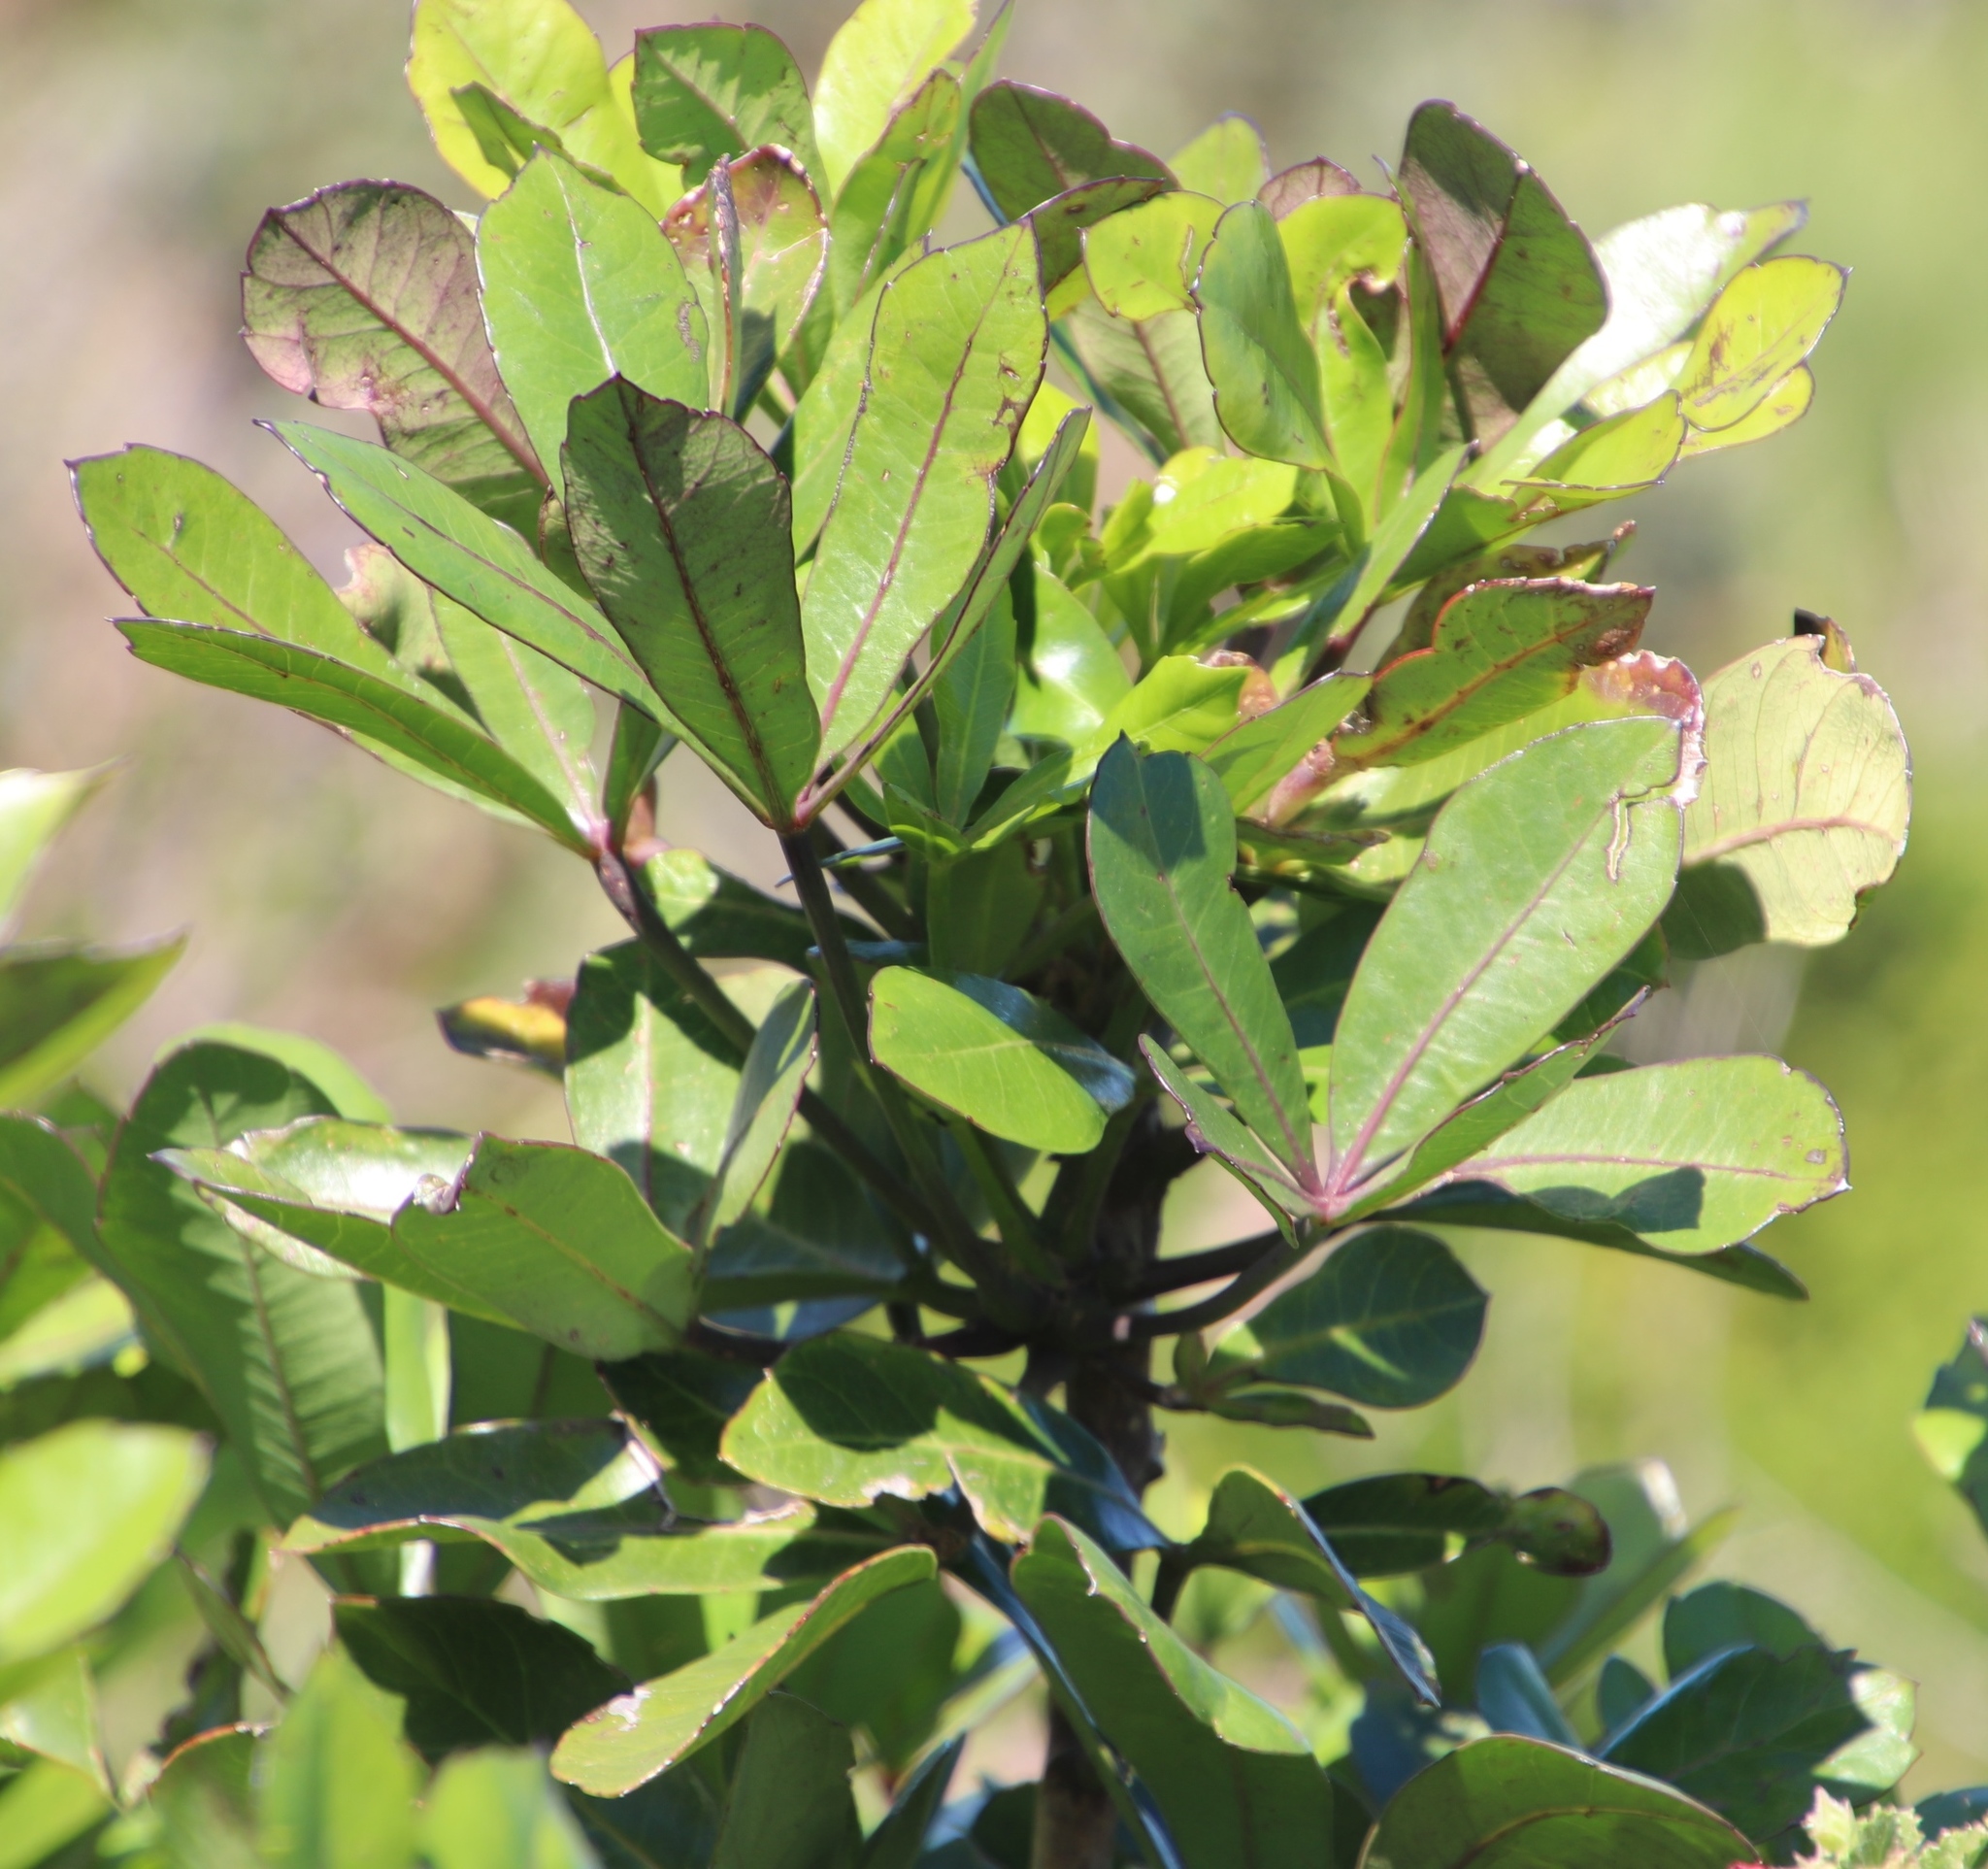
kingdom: Plantae
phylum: Tracheophyta
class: Magnoliopsida
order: Apiales
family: Araliaceae
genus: Cussonia
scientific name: Cussonia thyrsiflora
